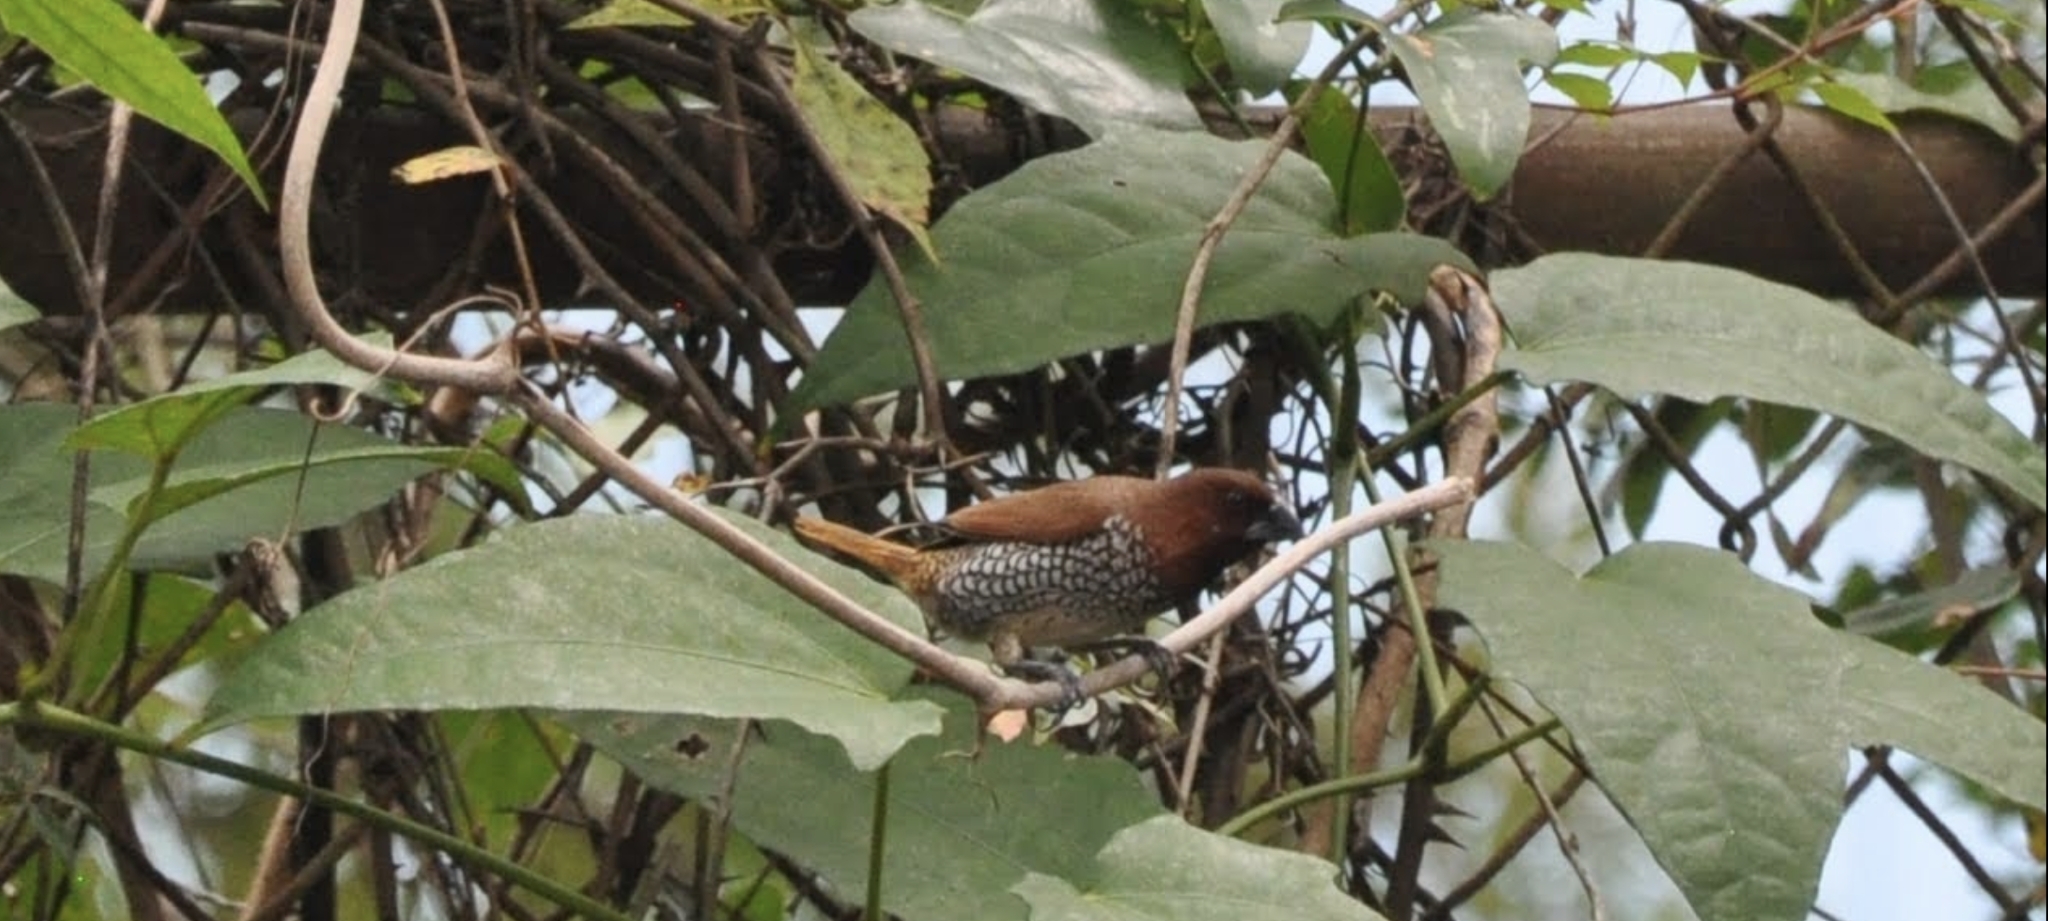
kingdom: Animalia
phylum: Chordata
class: Aves
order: Passeriformes
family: Estrildidae
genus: Lonchura
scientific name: Lonchura punctulata
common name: Scaly-breasted munia
